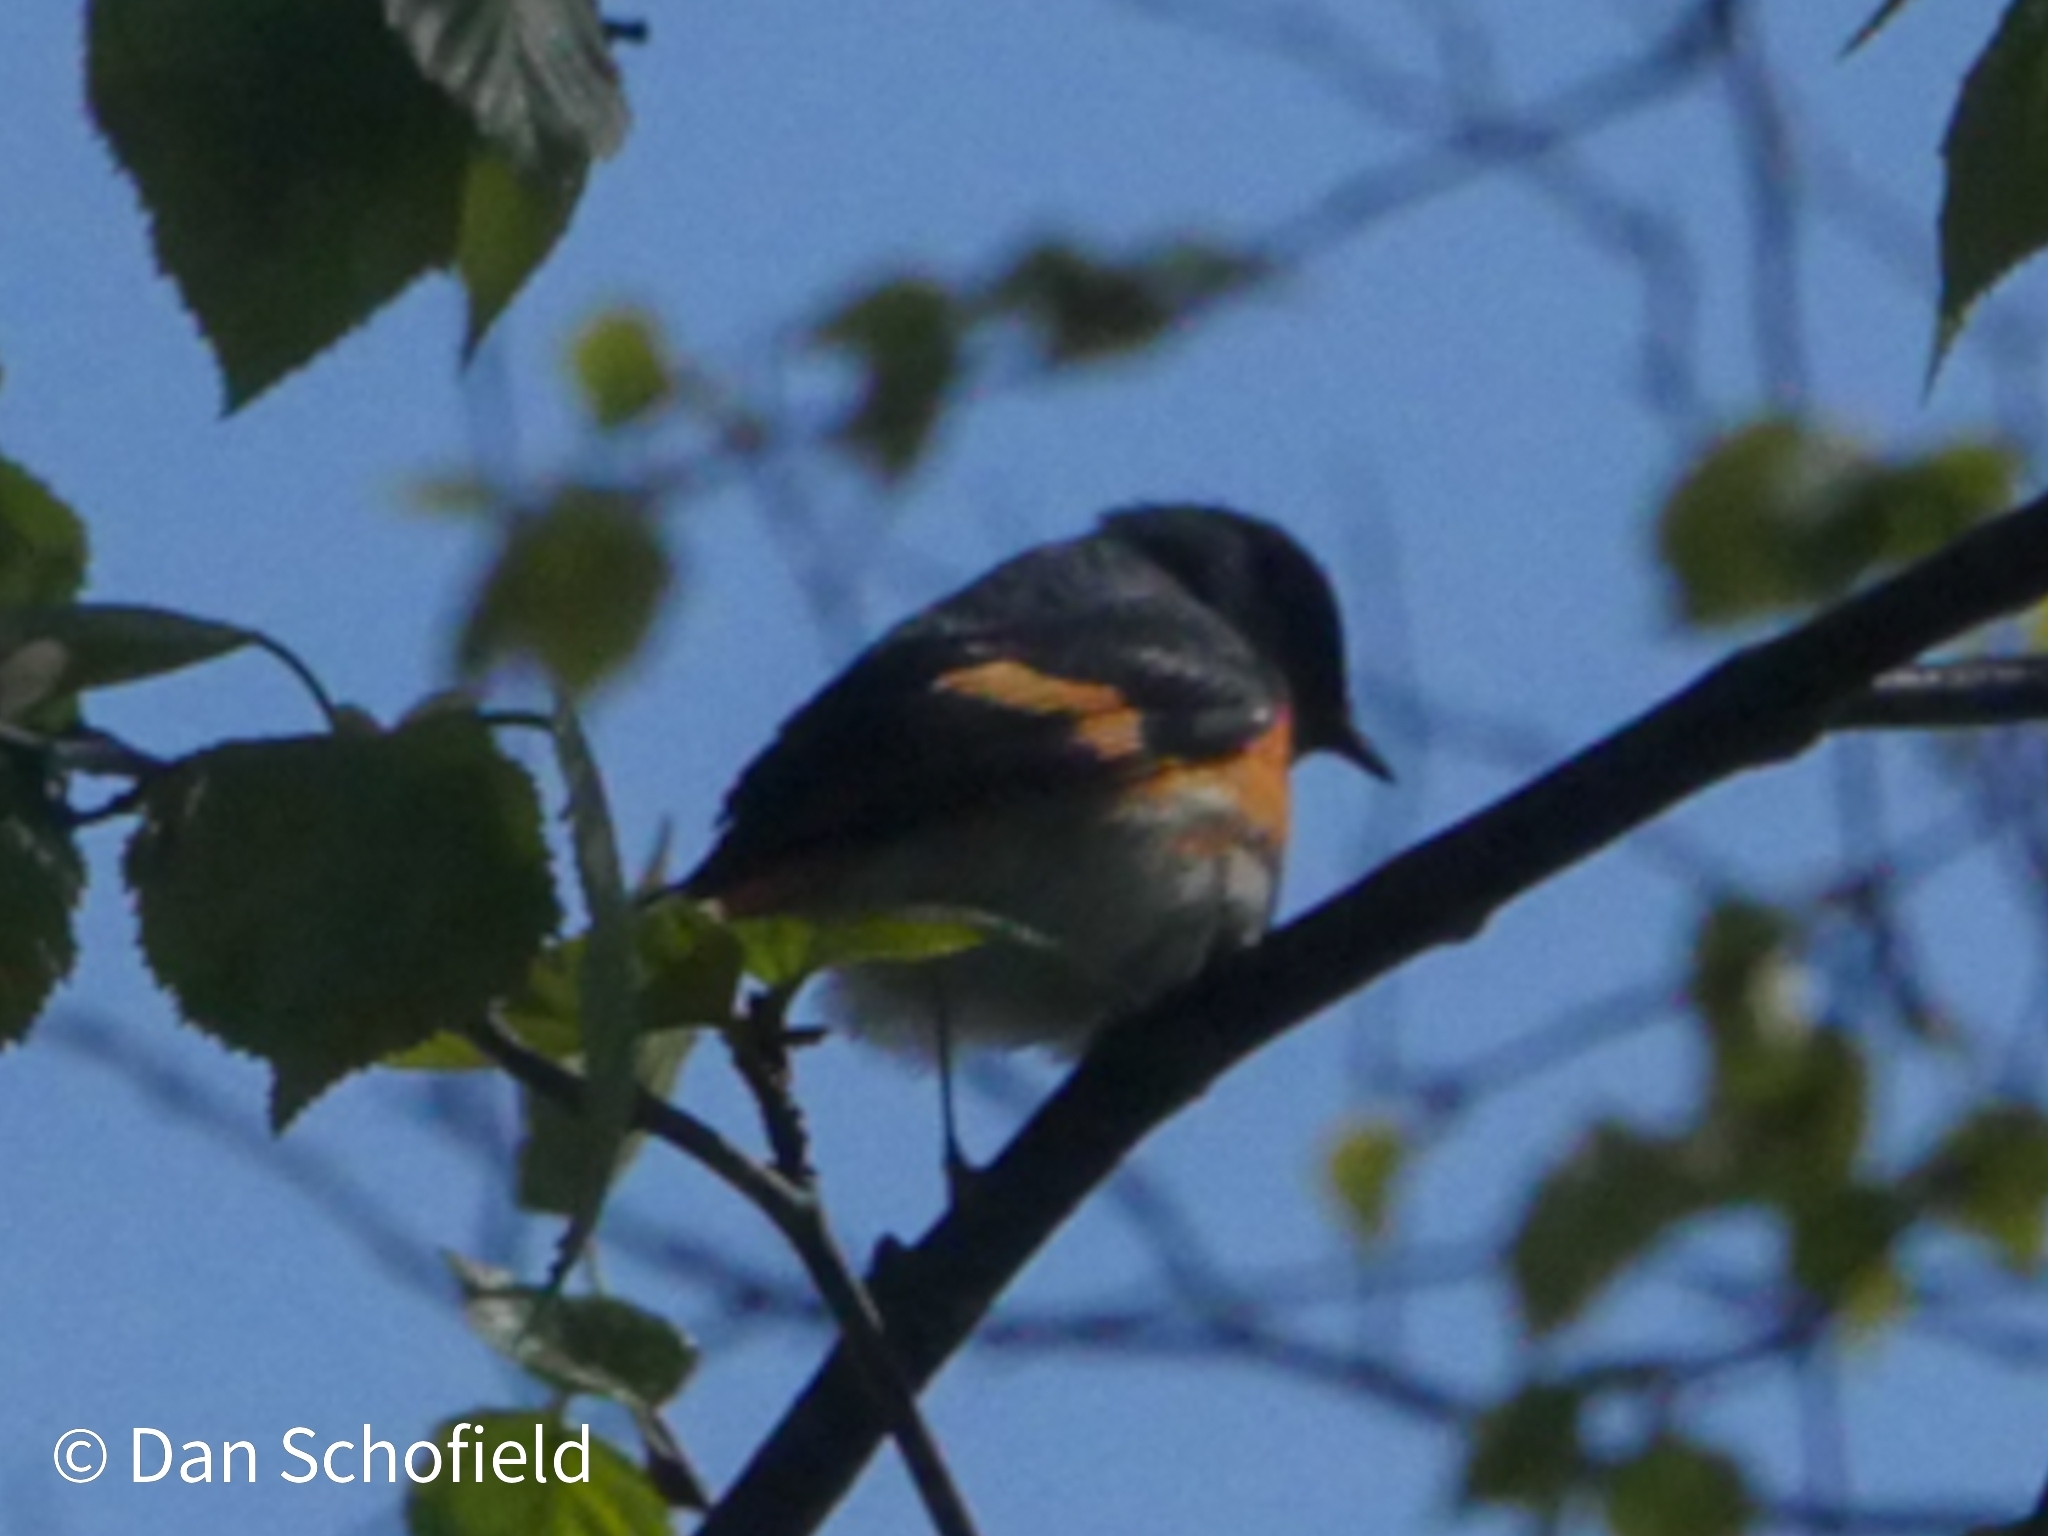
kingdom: Animalia
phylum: Chordata
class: Aves
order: Passeriformes
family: Parulidae
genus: Setophaga
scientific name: Setophaga ruticilla
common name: American redstart
